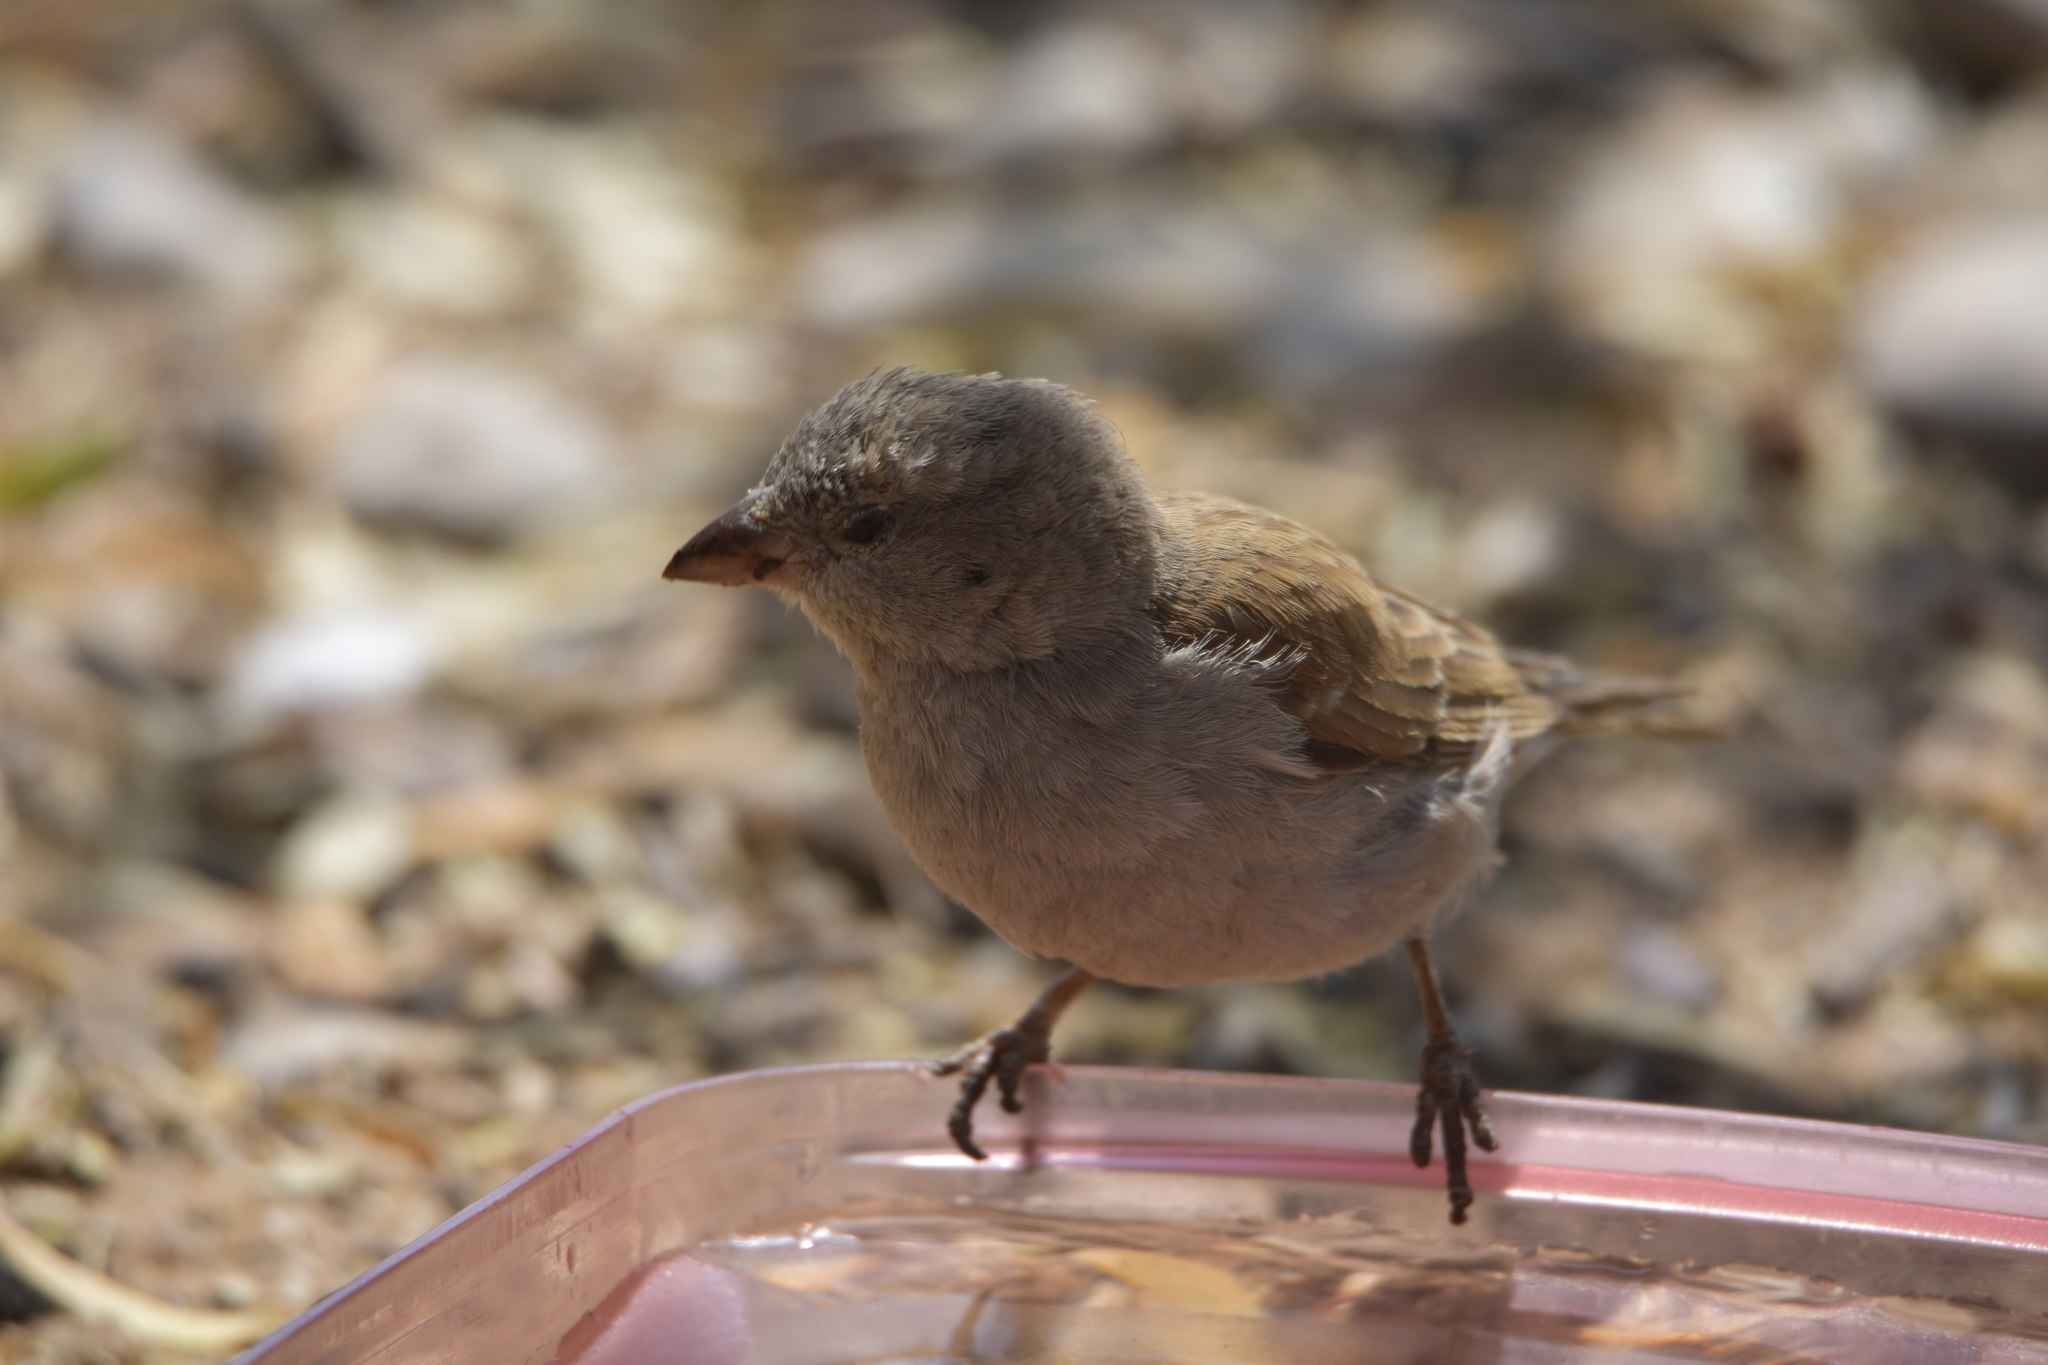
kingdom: Animalia
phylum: Chordata
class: Aves
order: Passeriformes
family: Passeridae
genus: Passer
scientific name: Passer diffusus
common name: Southern grey-headed sparrow
